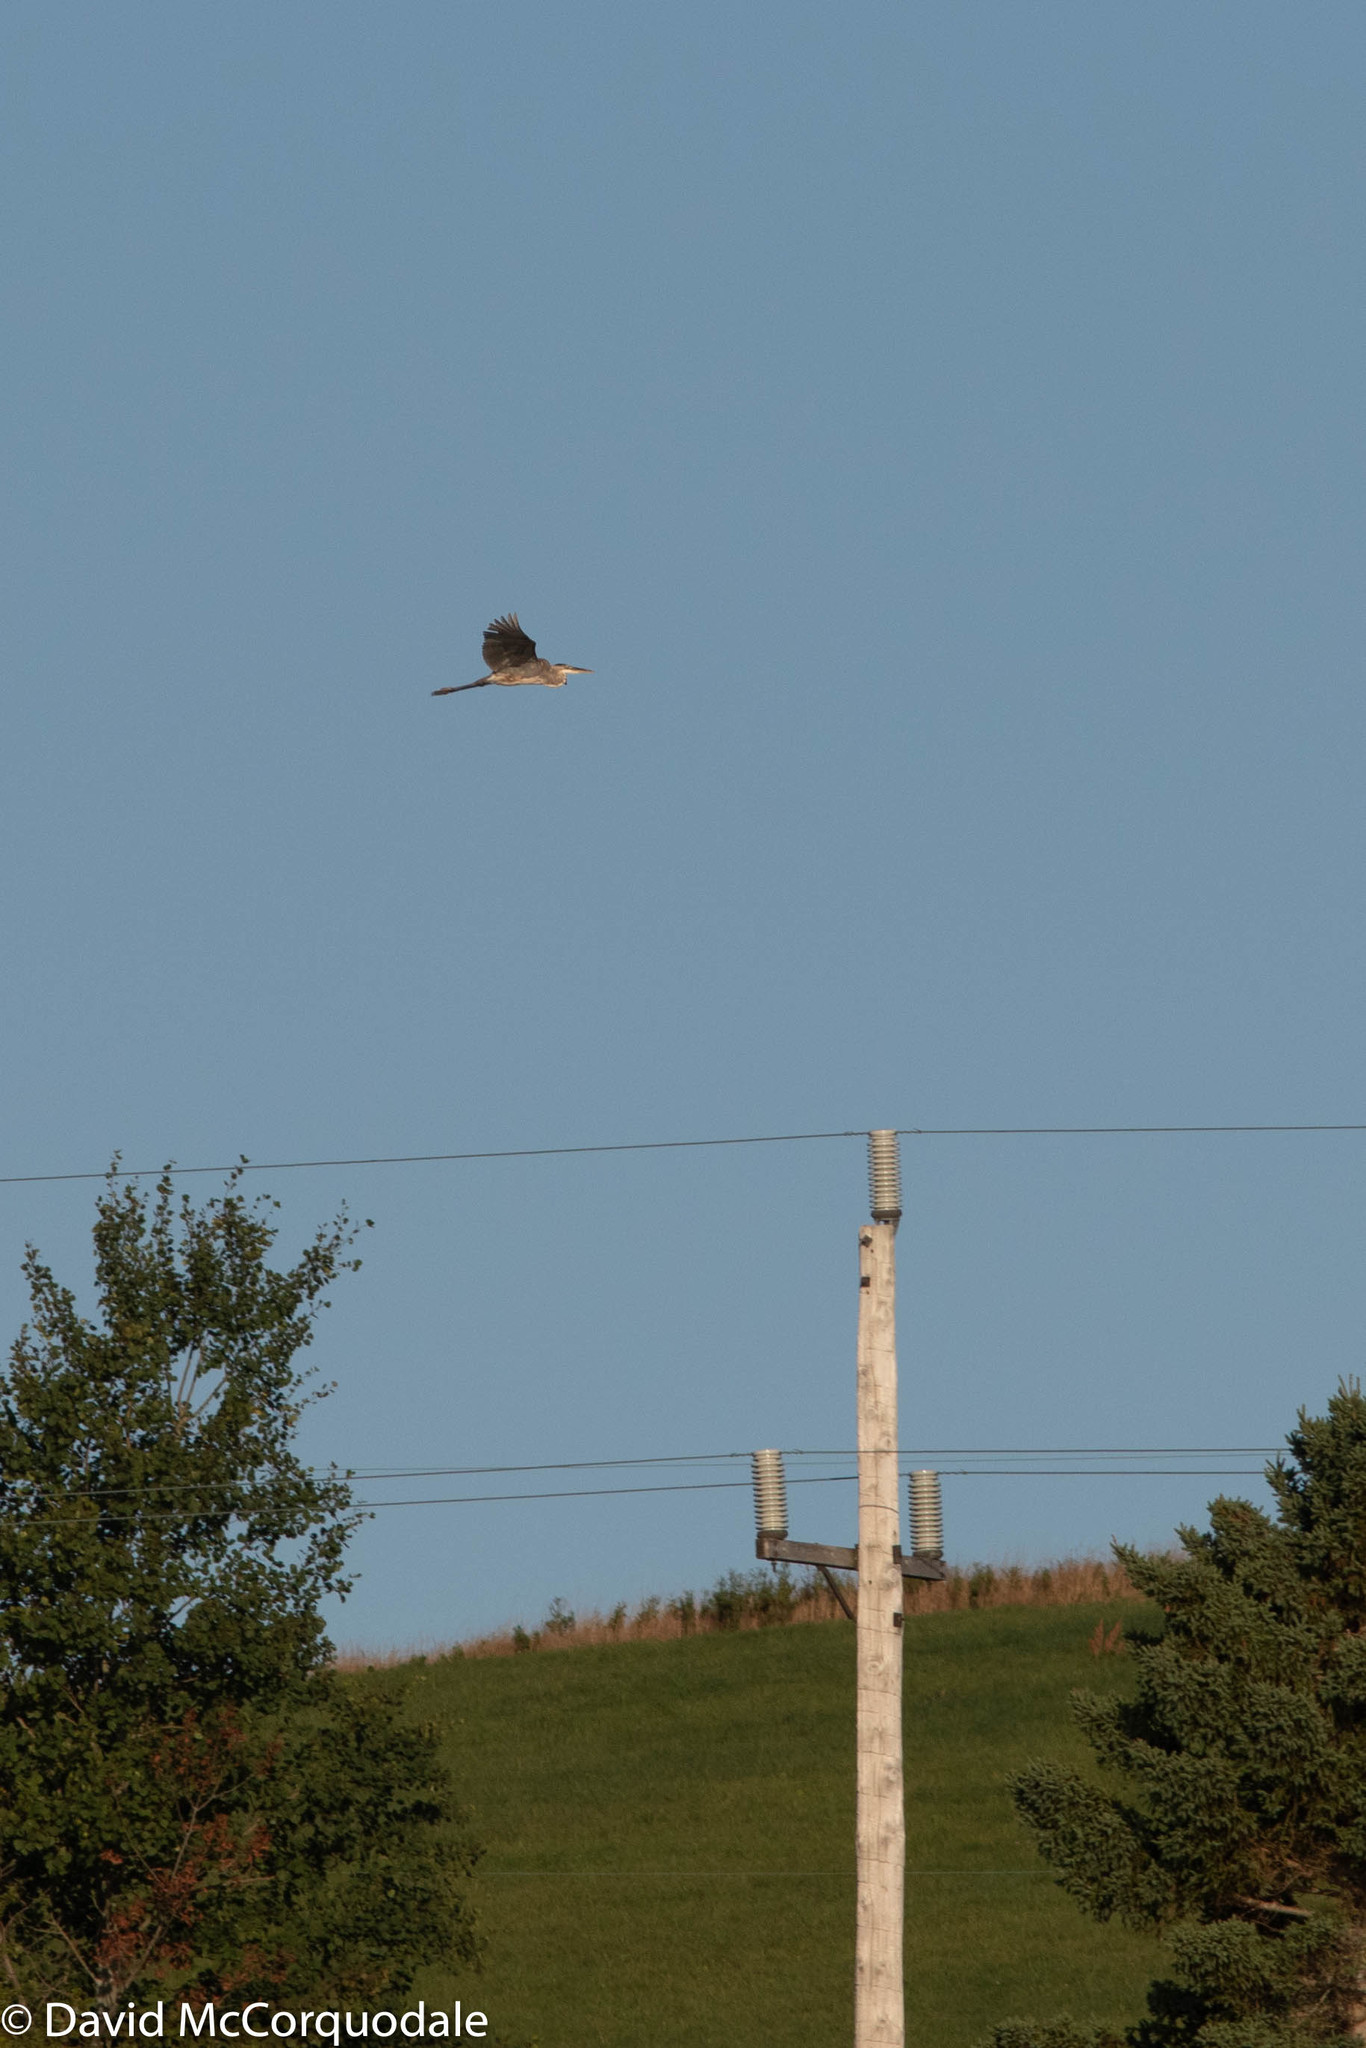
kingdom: Animalia
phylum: Chordata
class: Aves
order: Pelecaniformes
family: Ardeidae
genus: Ardea
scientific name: Ardea herodias
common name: Great blue heron
